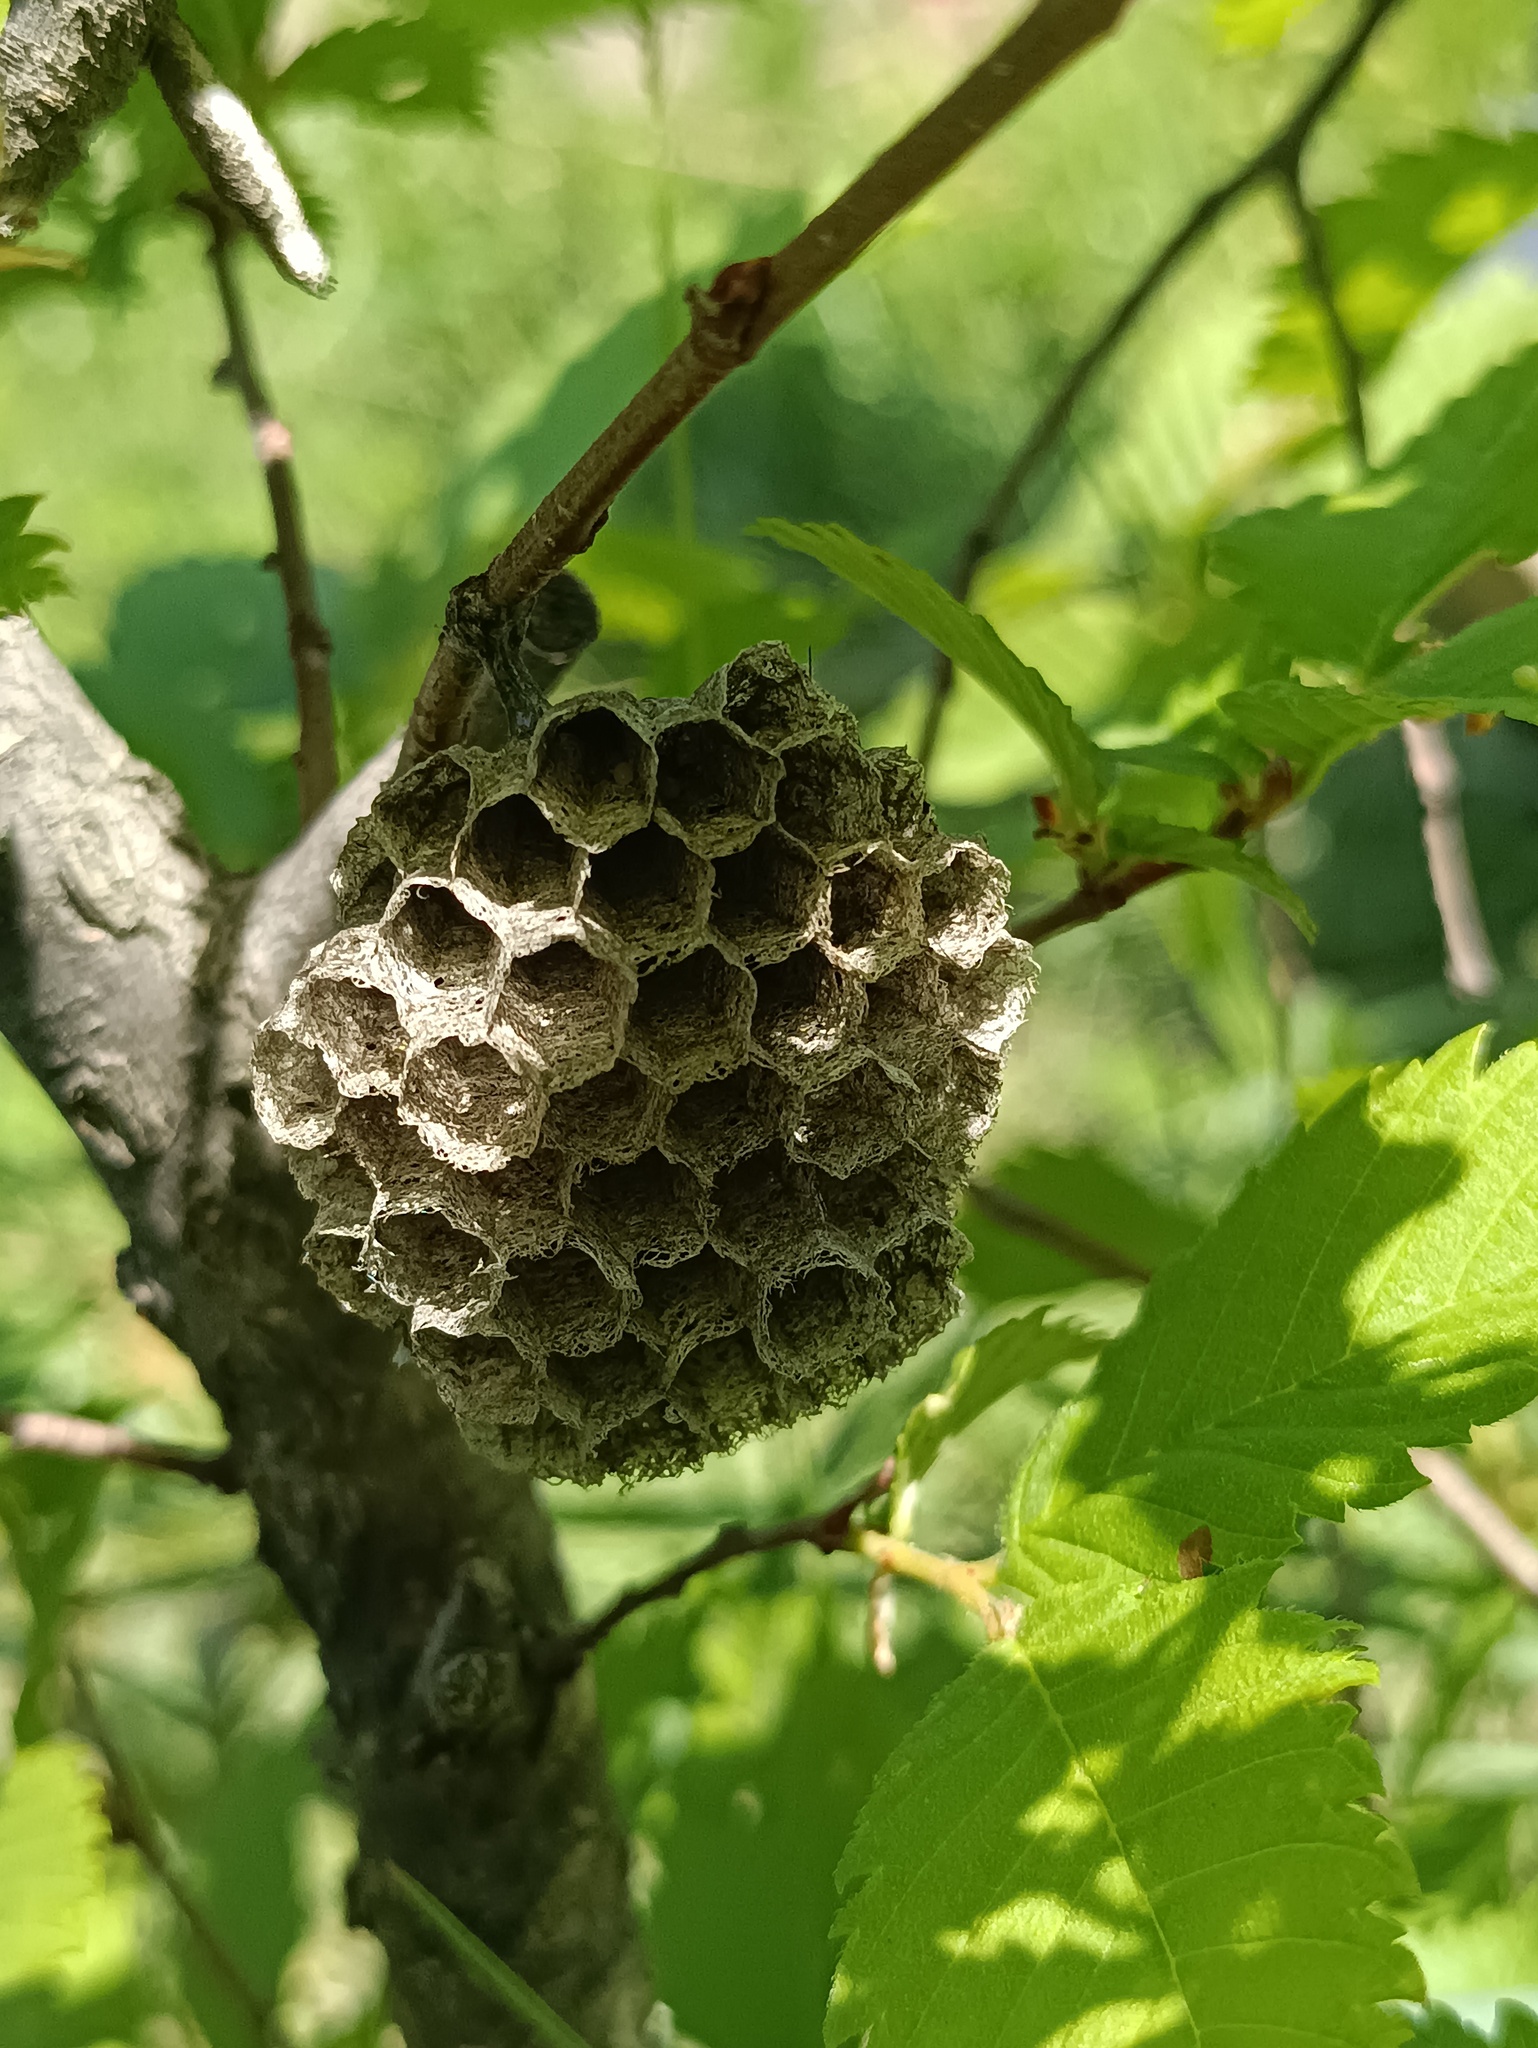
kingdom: Animalia
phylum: Arthropoda
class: Insecta
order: Hymenoptera
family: Eumenidae
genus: Polistes
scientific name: Polistes nimpha
